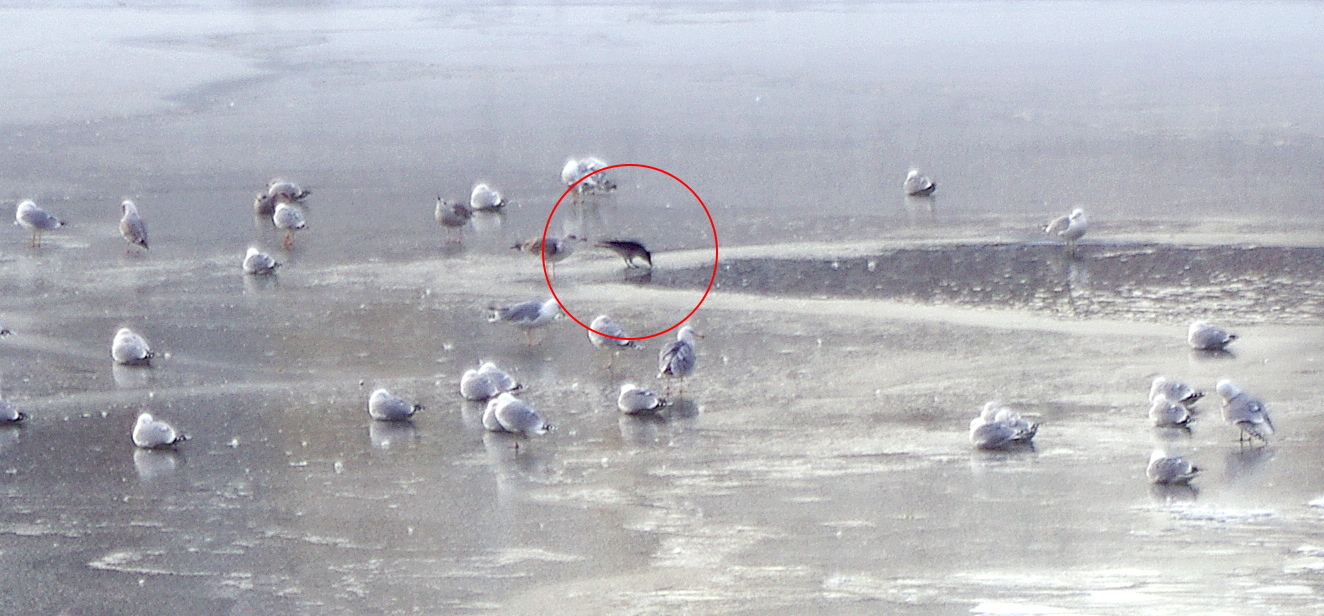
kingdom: Animalia
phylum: Chordata
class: Aves
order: Passeriformes
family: Corvidae
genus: Corvus
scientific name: Corvus cornix
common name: Hooded crow
